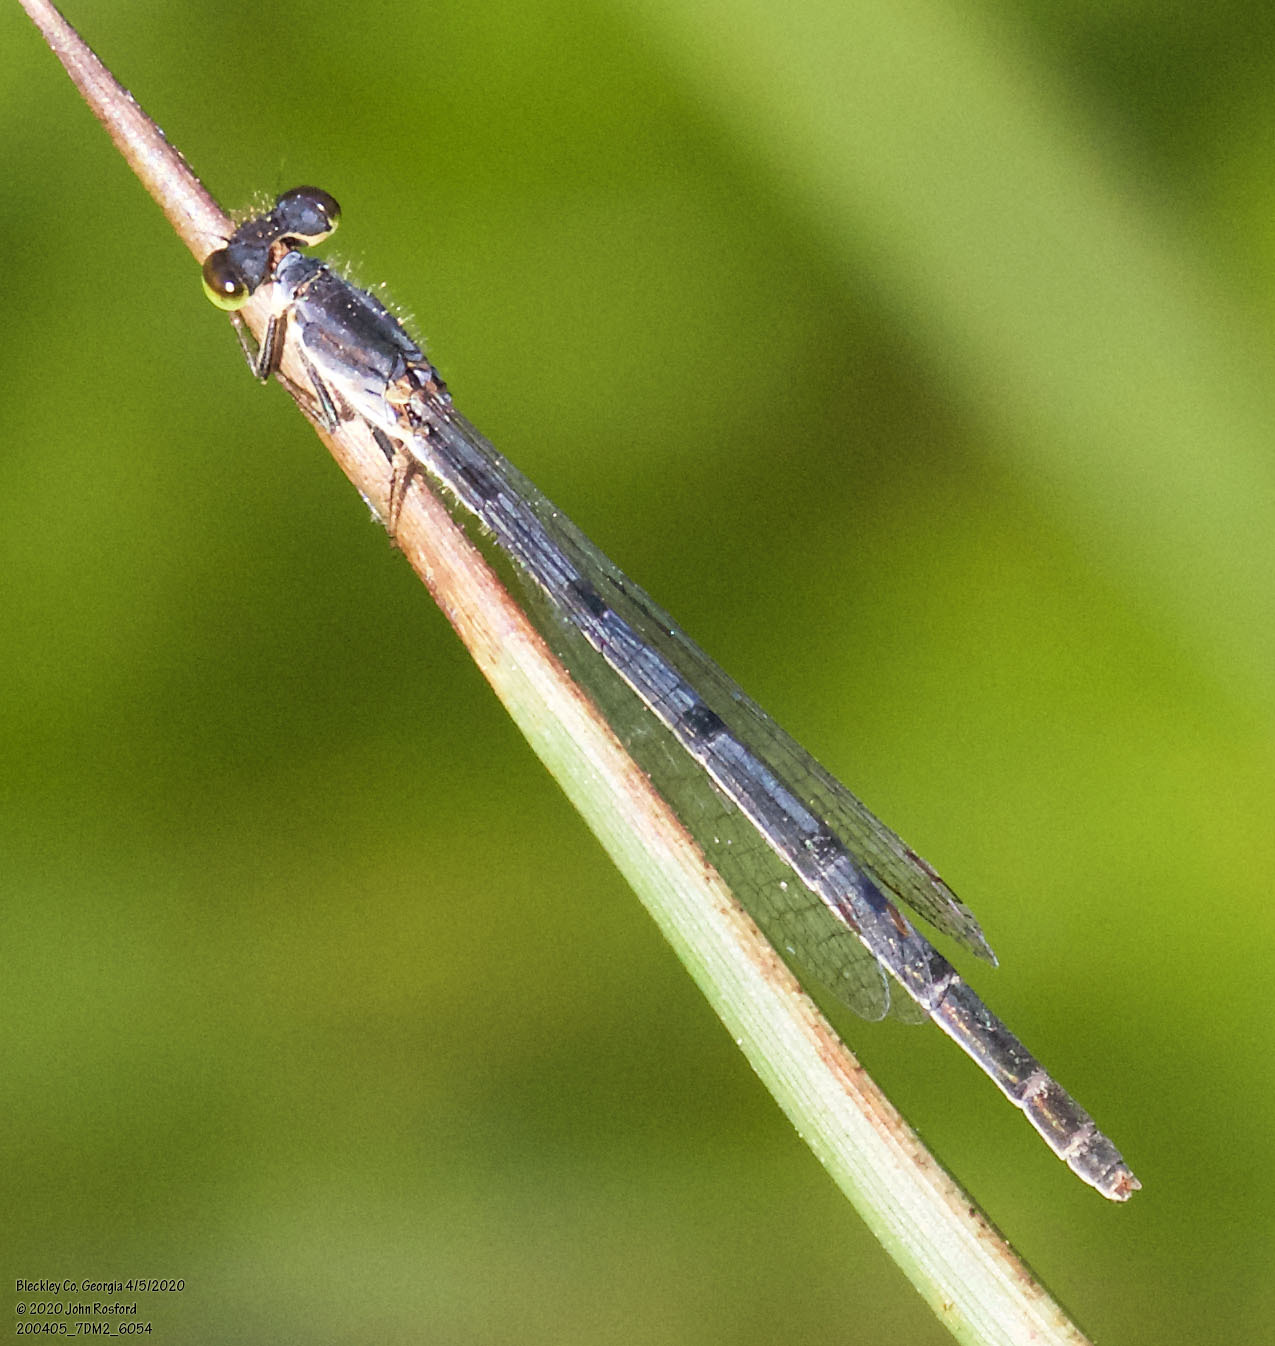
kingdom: Animalia
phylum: Arthropoda
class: Insecta
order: Odonata
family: Coenagrionidae
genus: Ischnura
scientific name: Ischnura posita
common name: Fragile forktail
